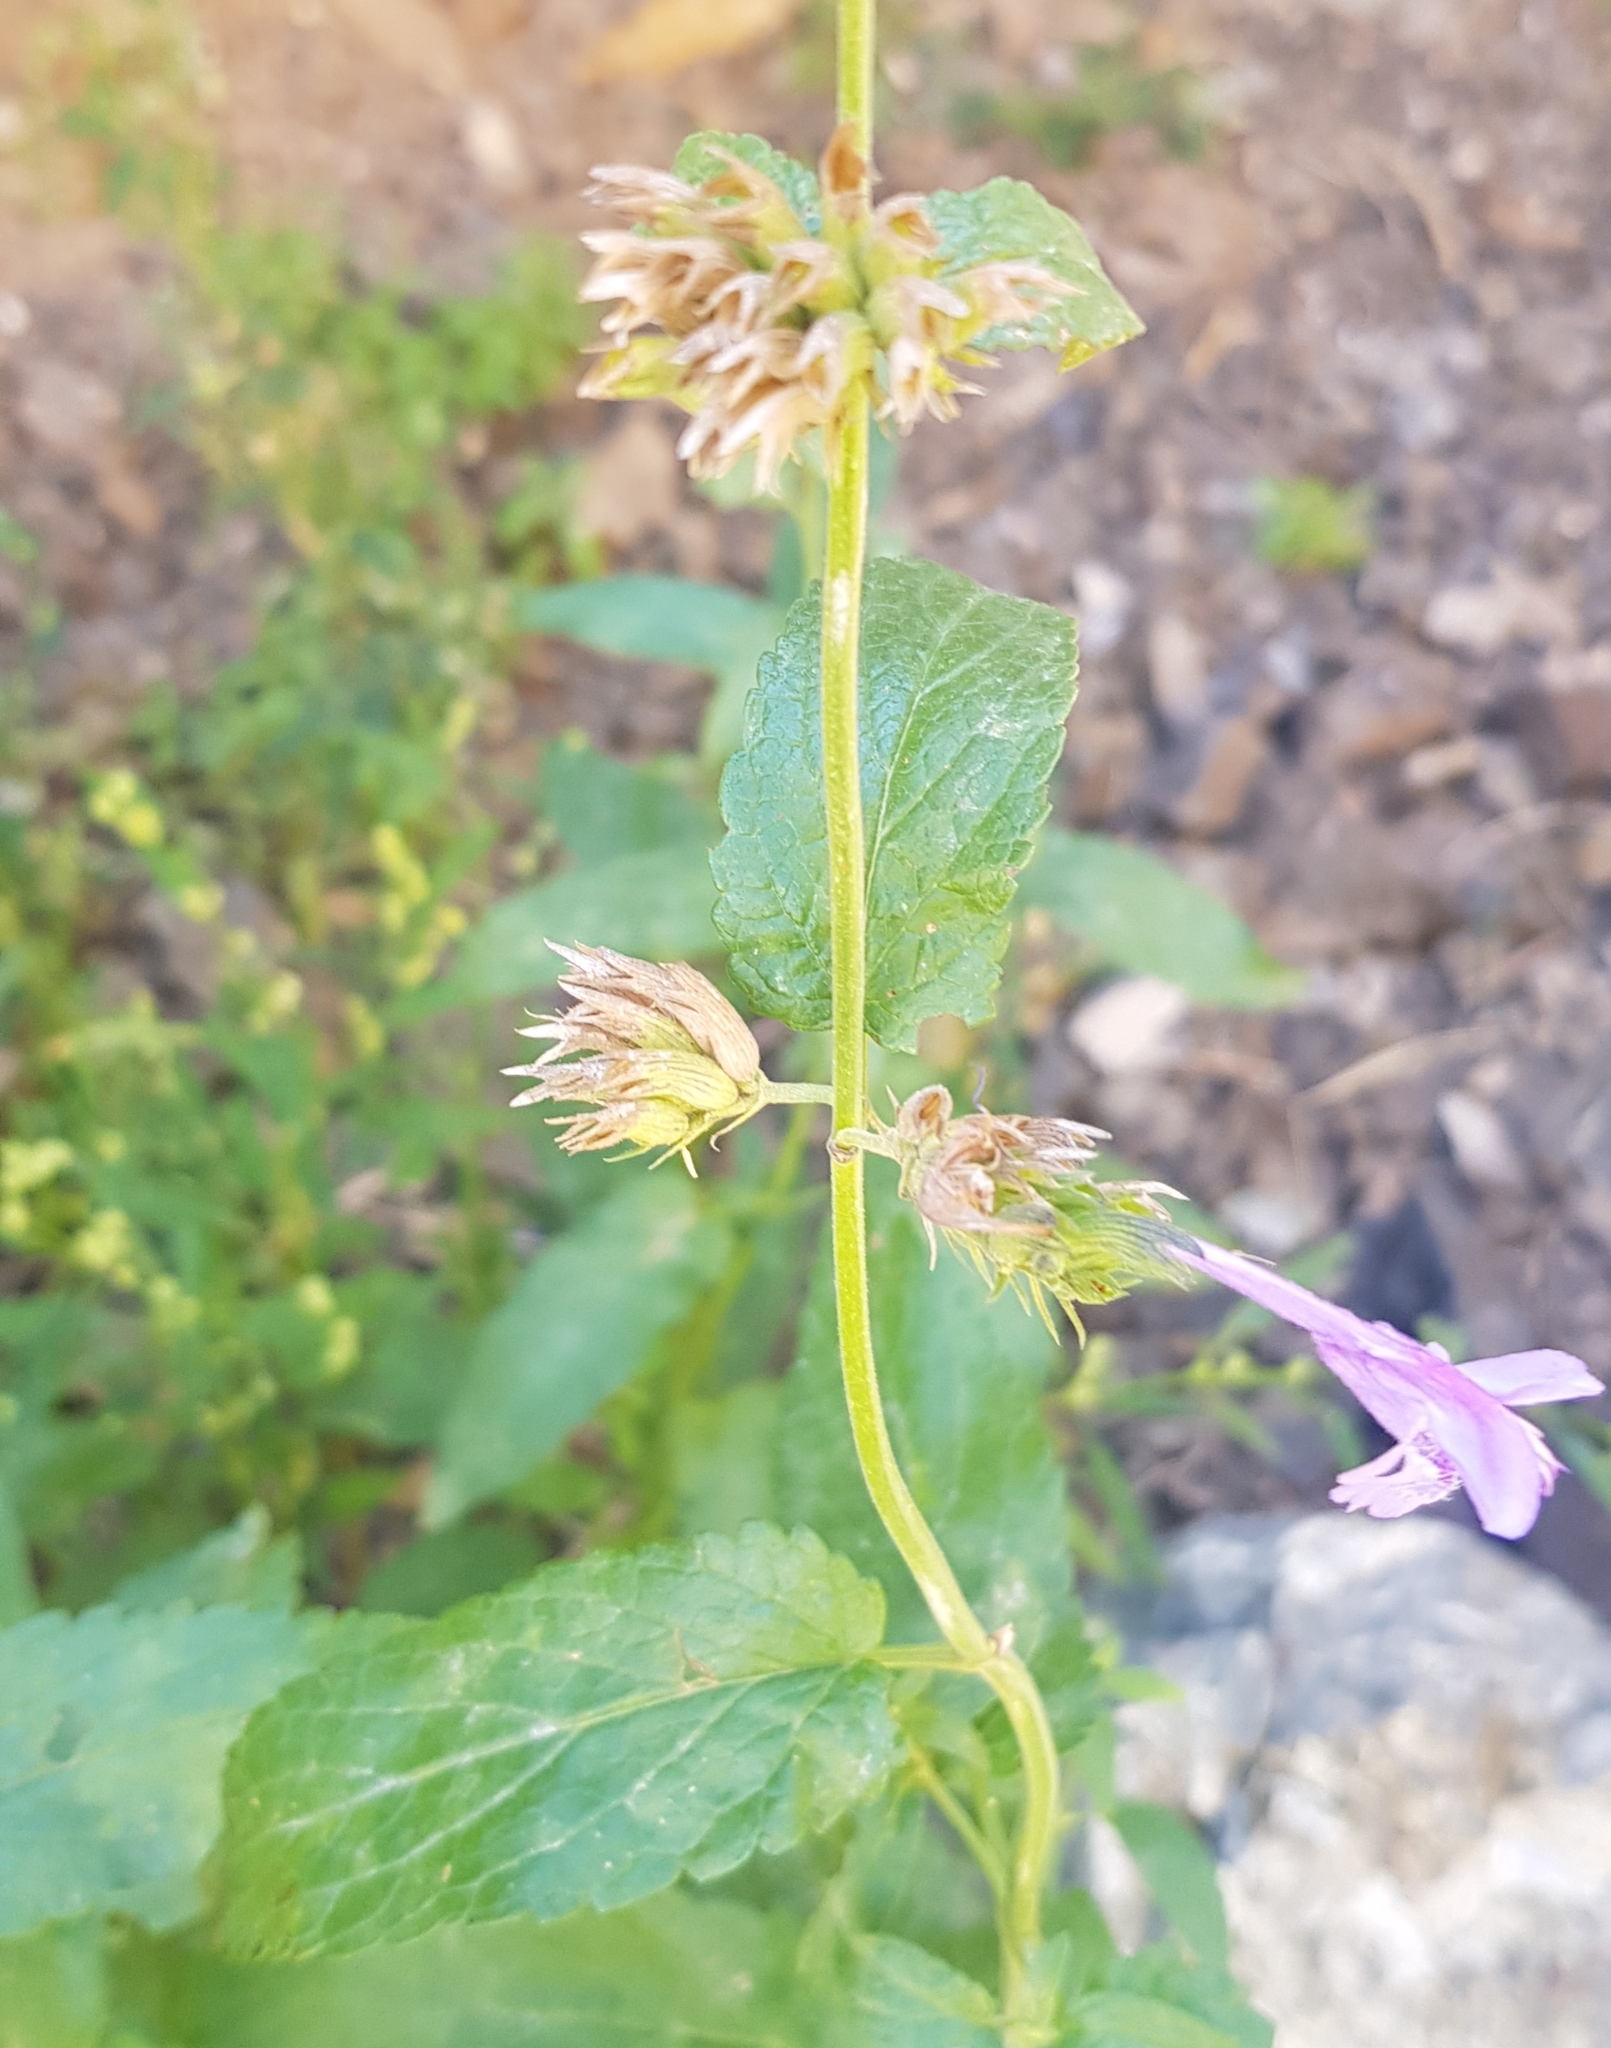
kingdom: Plantae
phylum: Tracheophyta
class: Magnoliopsida
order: Lamiales
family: Lamiaceae
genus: Nepeta
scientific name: Nepeta sibirica
